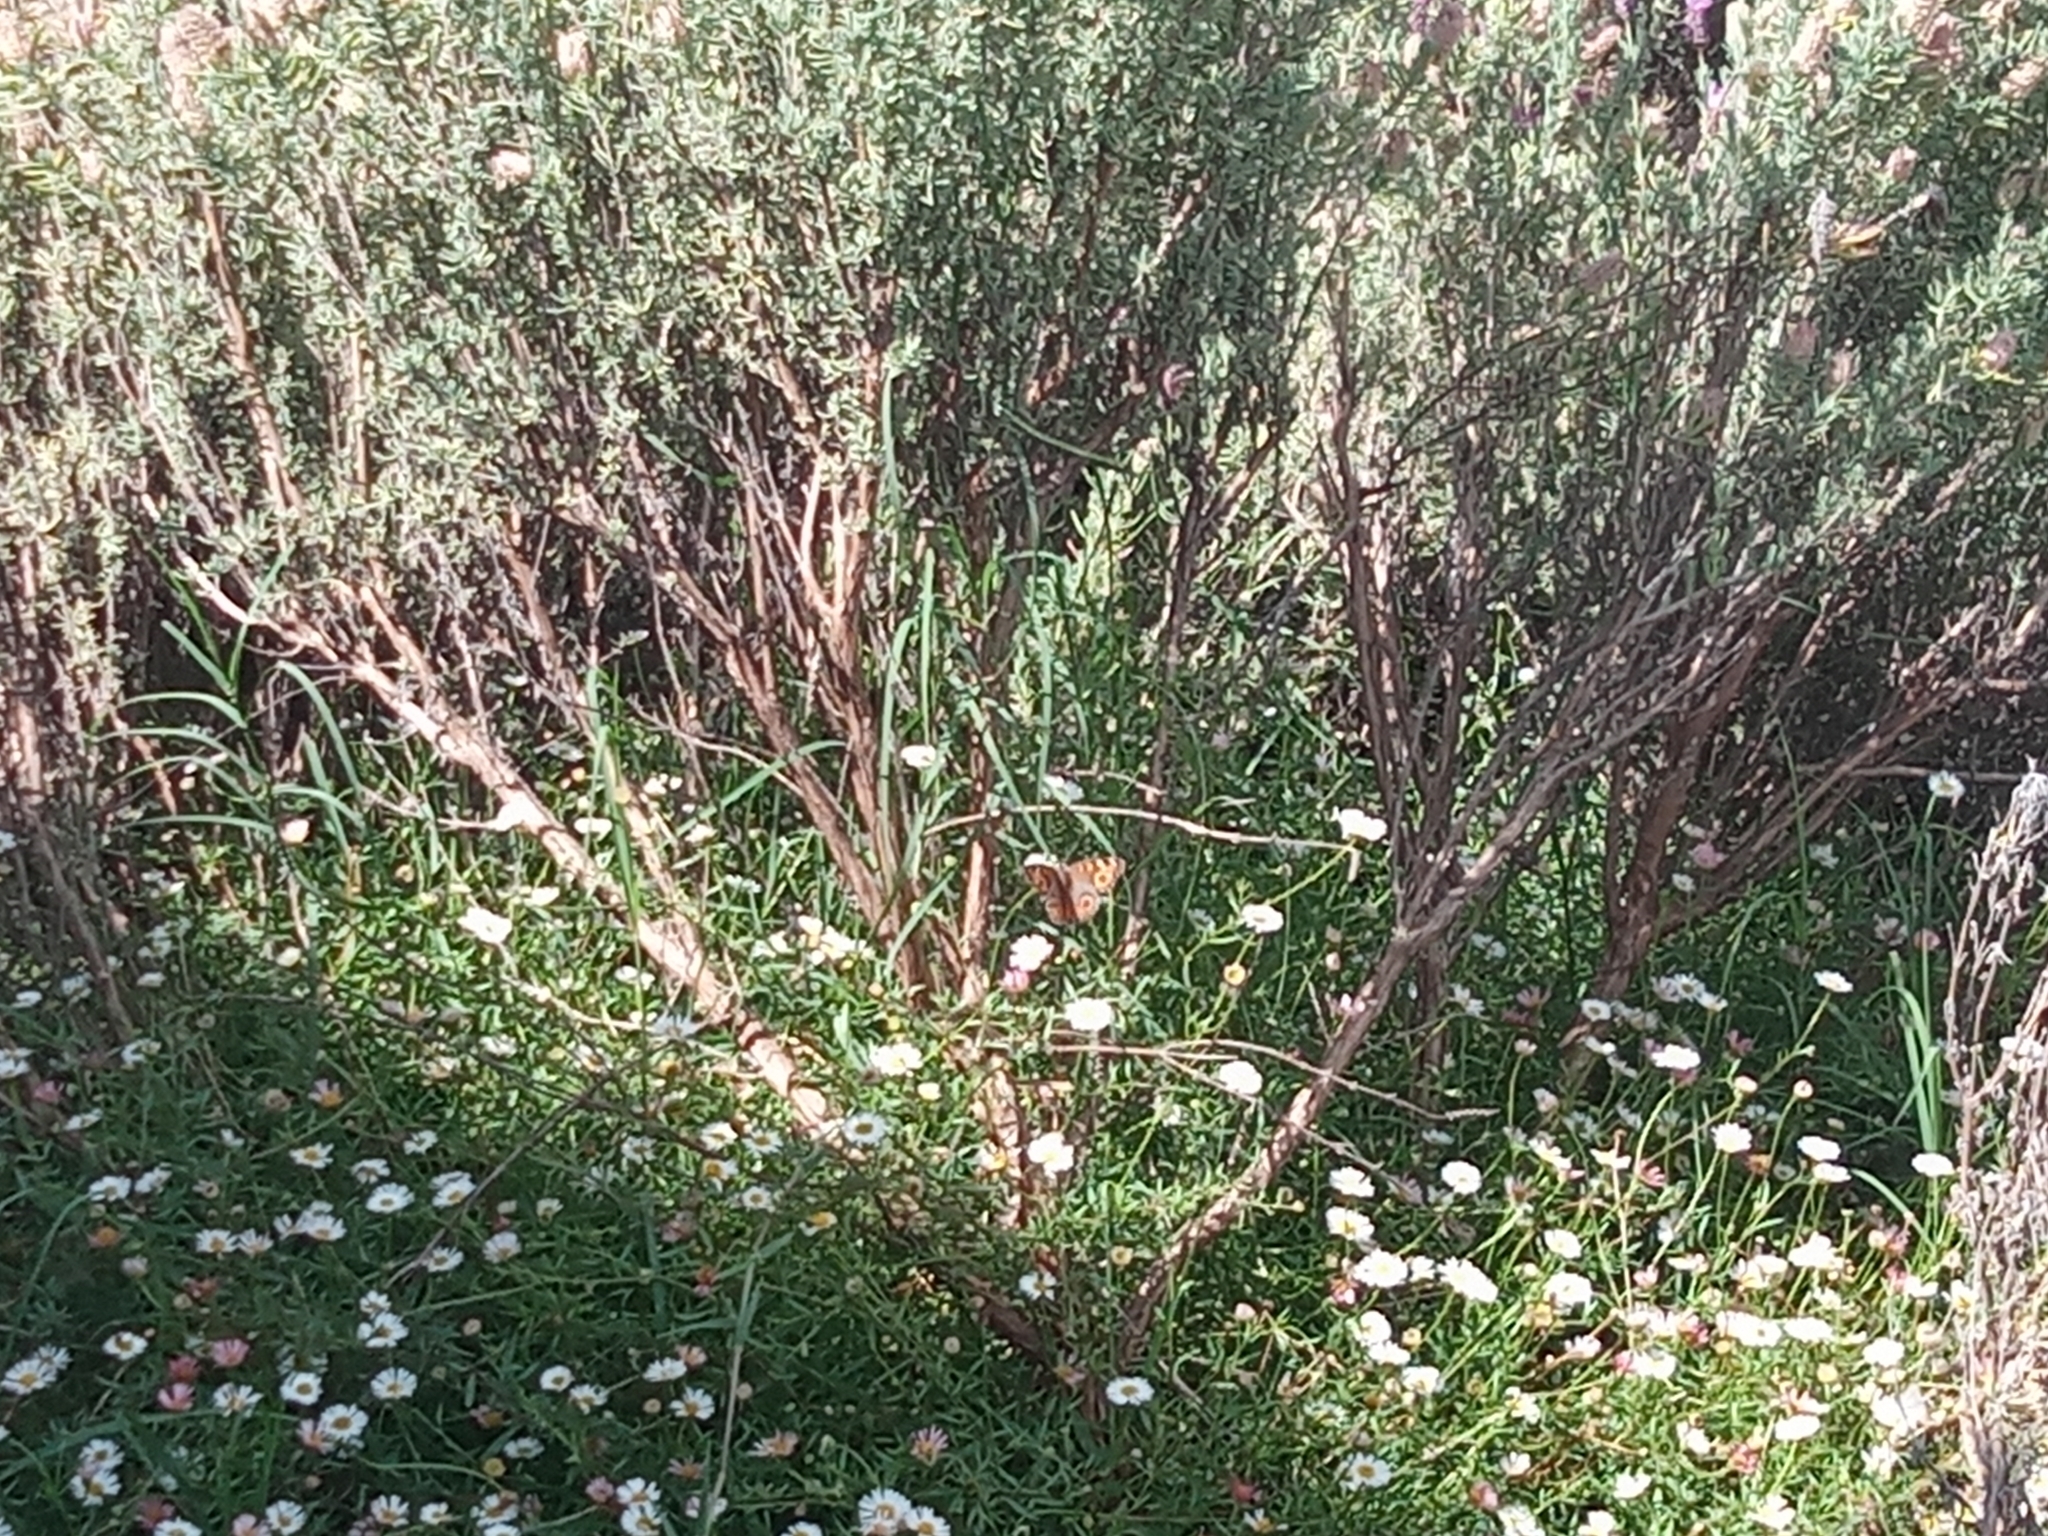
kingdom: Animalia
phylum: Arthropoda
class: Insecta
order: Lepidoptera
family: Nymphalidae
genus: Junonia
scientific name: Junonia villida
